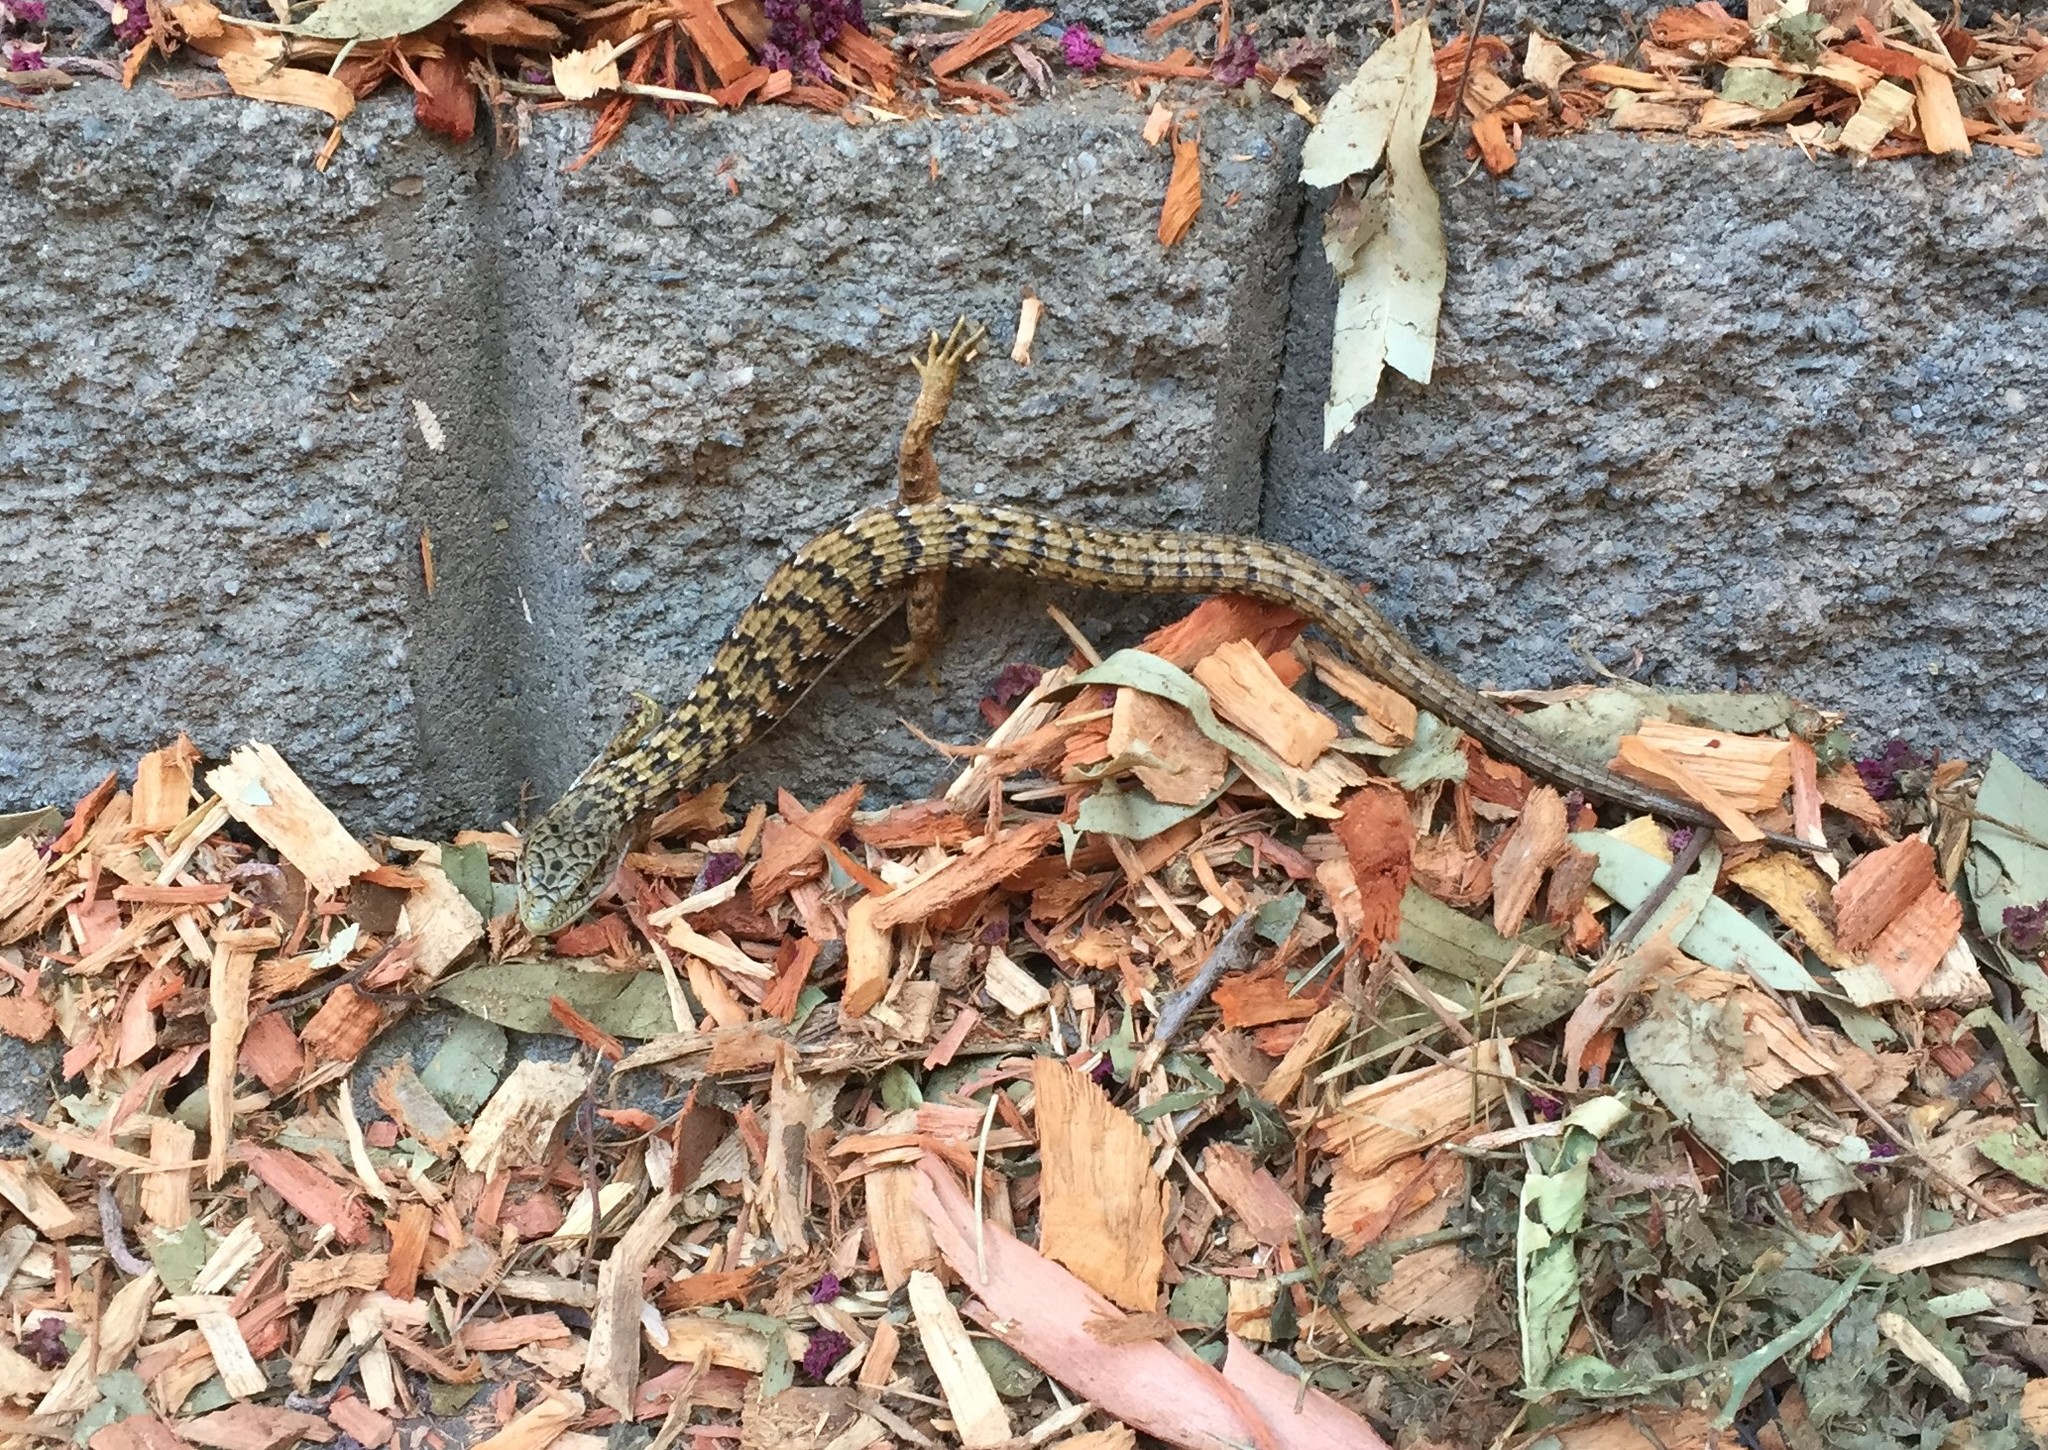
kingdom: Animalia
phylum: Chordata
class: Squamata
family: Anguidae
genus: Elgaria
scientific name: Elgaria multicarinata
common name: Southern alligator lizard
